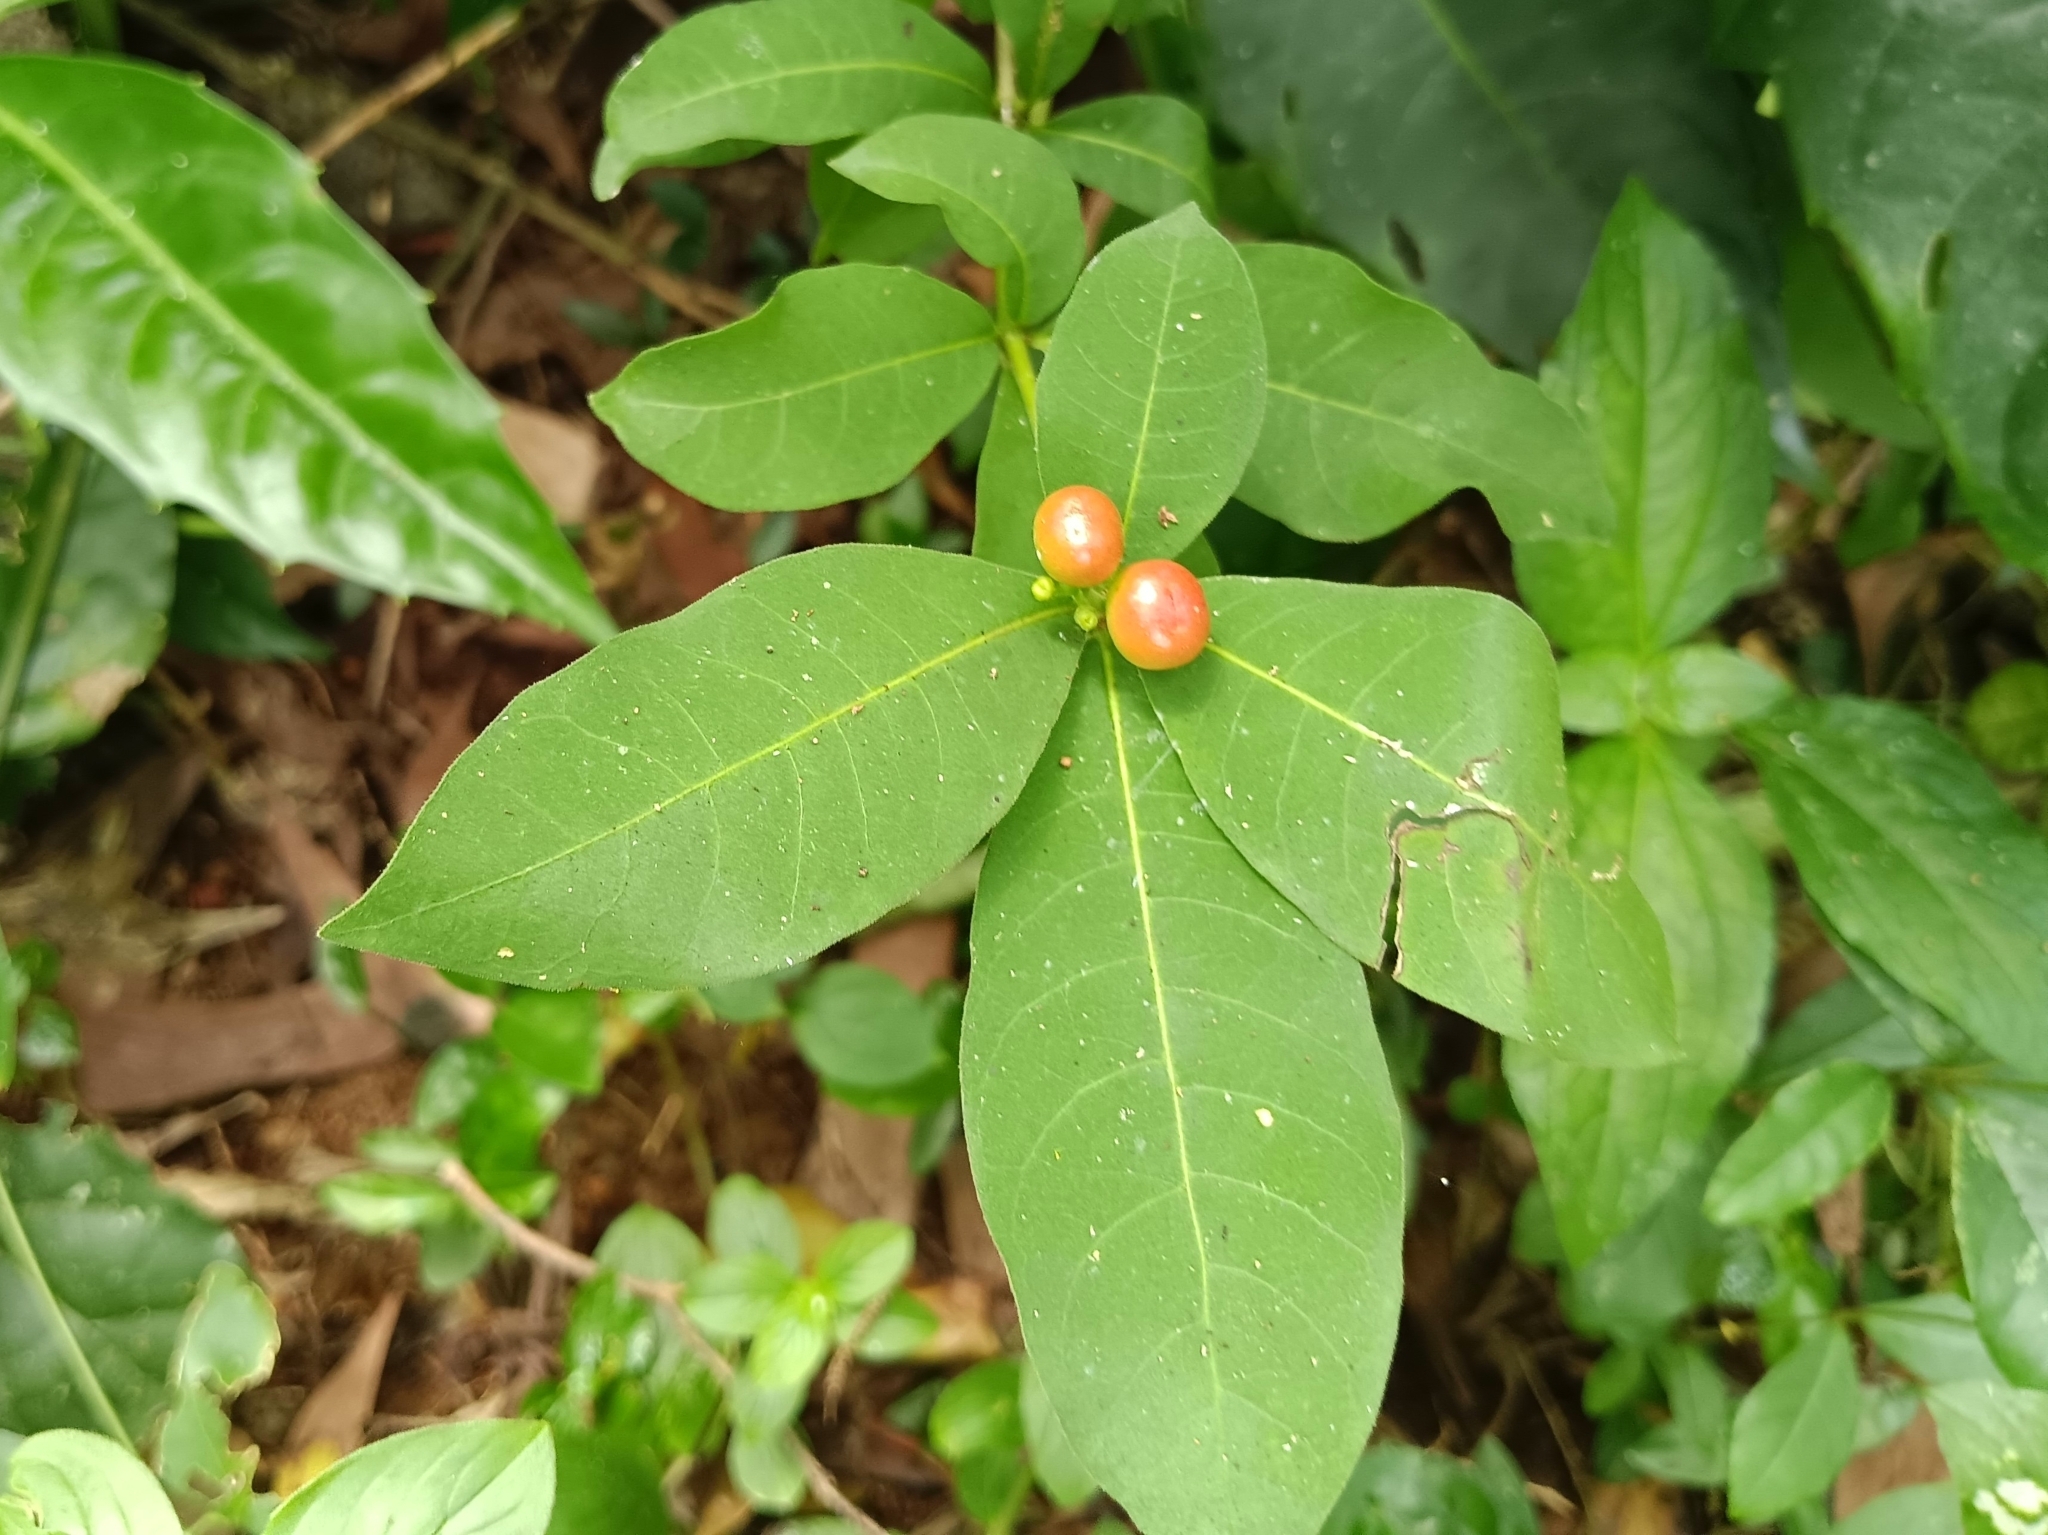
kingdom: Plantae
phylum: Tracheophyta
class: Magnoliopsida
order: Gentianales
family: Apocynaceae
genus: Rauvolfia
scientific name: Rauvolfia tetraphylla
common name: Four-leaf devil-pepper
